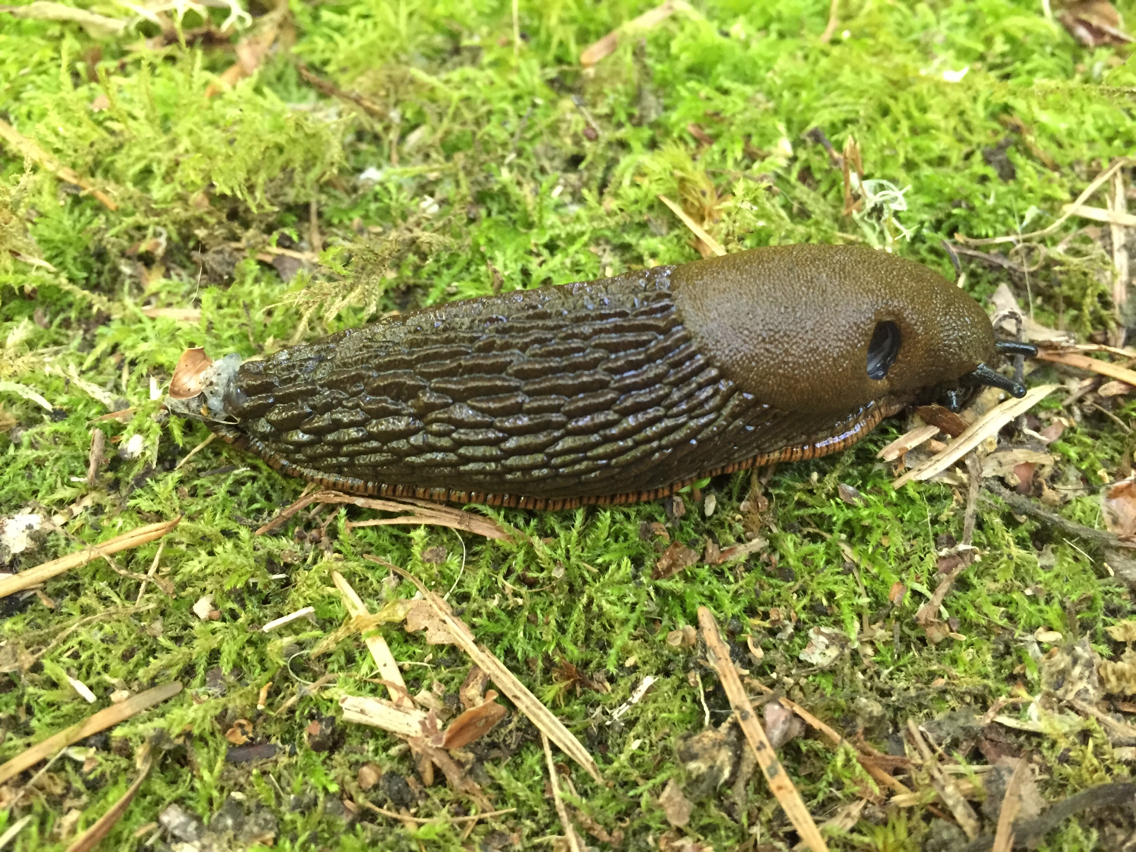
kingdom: Animalia
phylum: Mollusca
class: Gastropoda
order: Stylommatophora
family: Arionidae
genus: Arion
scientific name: Arion rufus
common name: Chocolate arion
